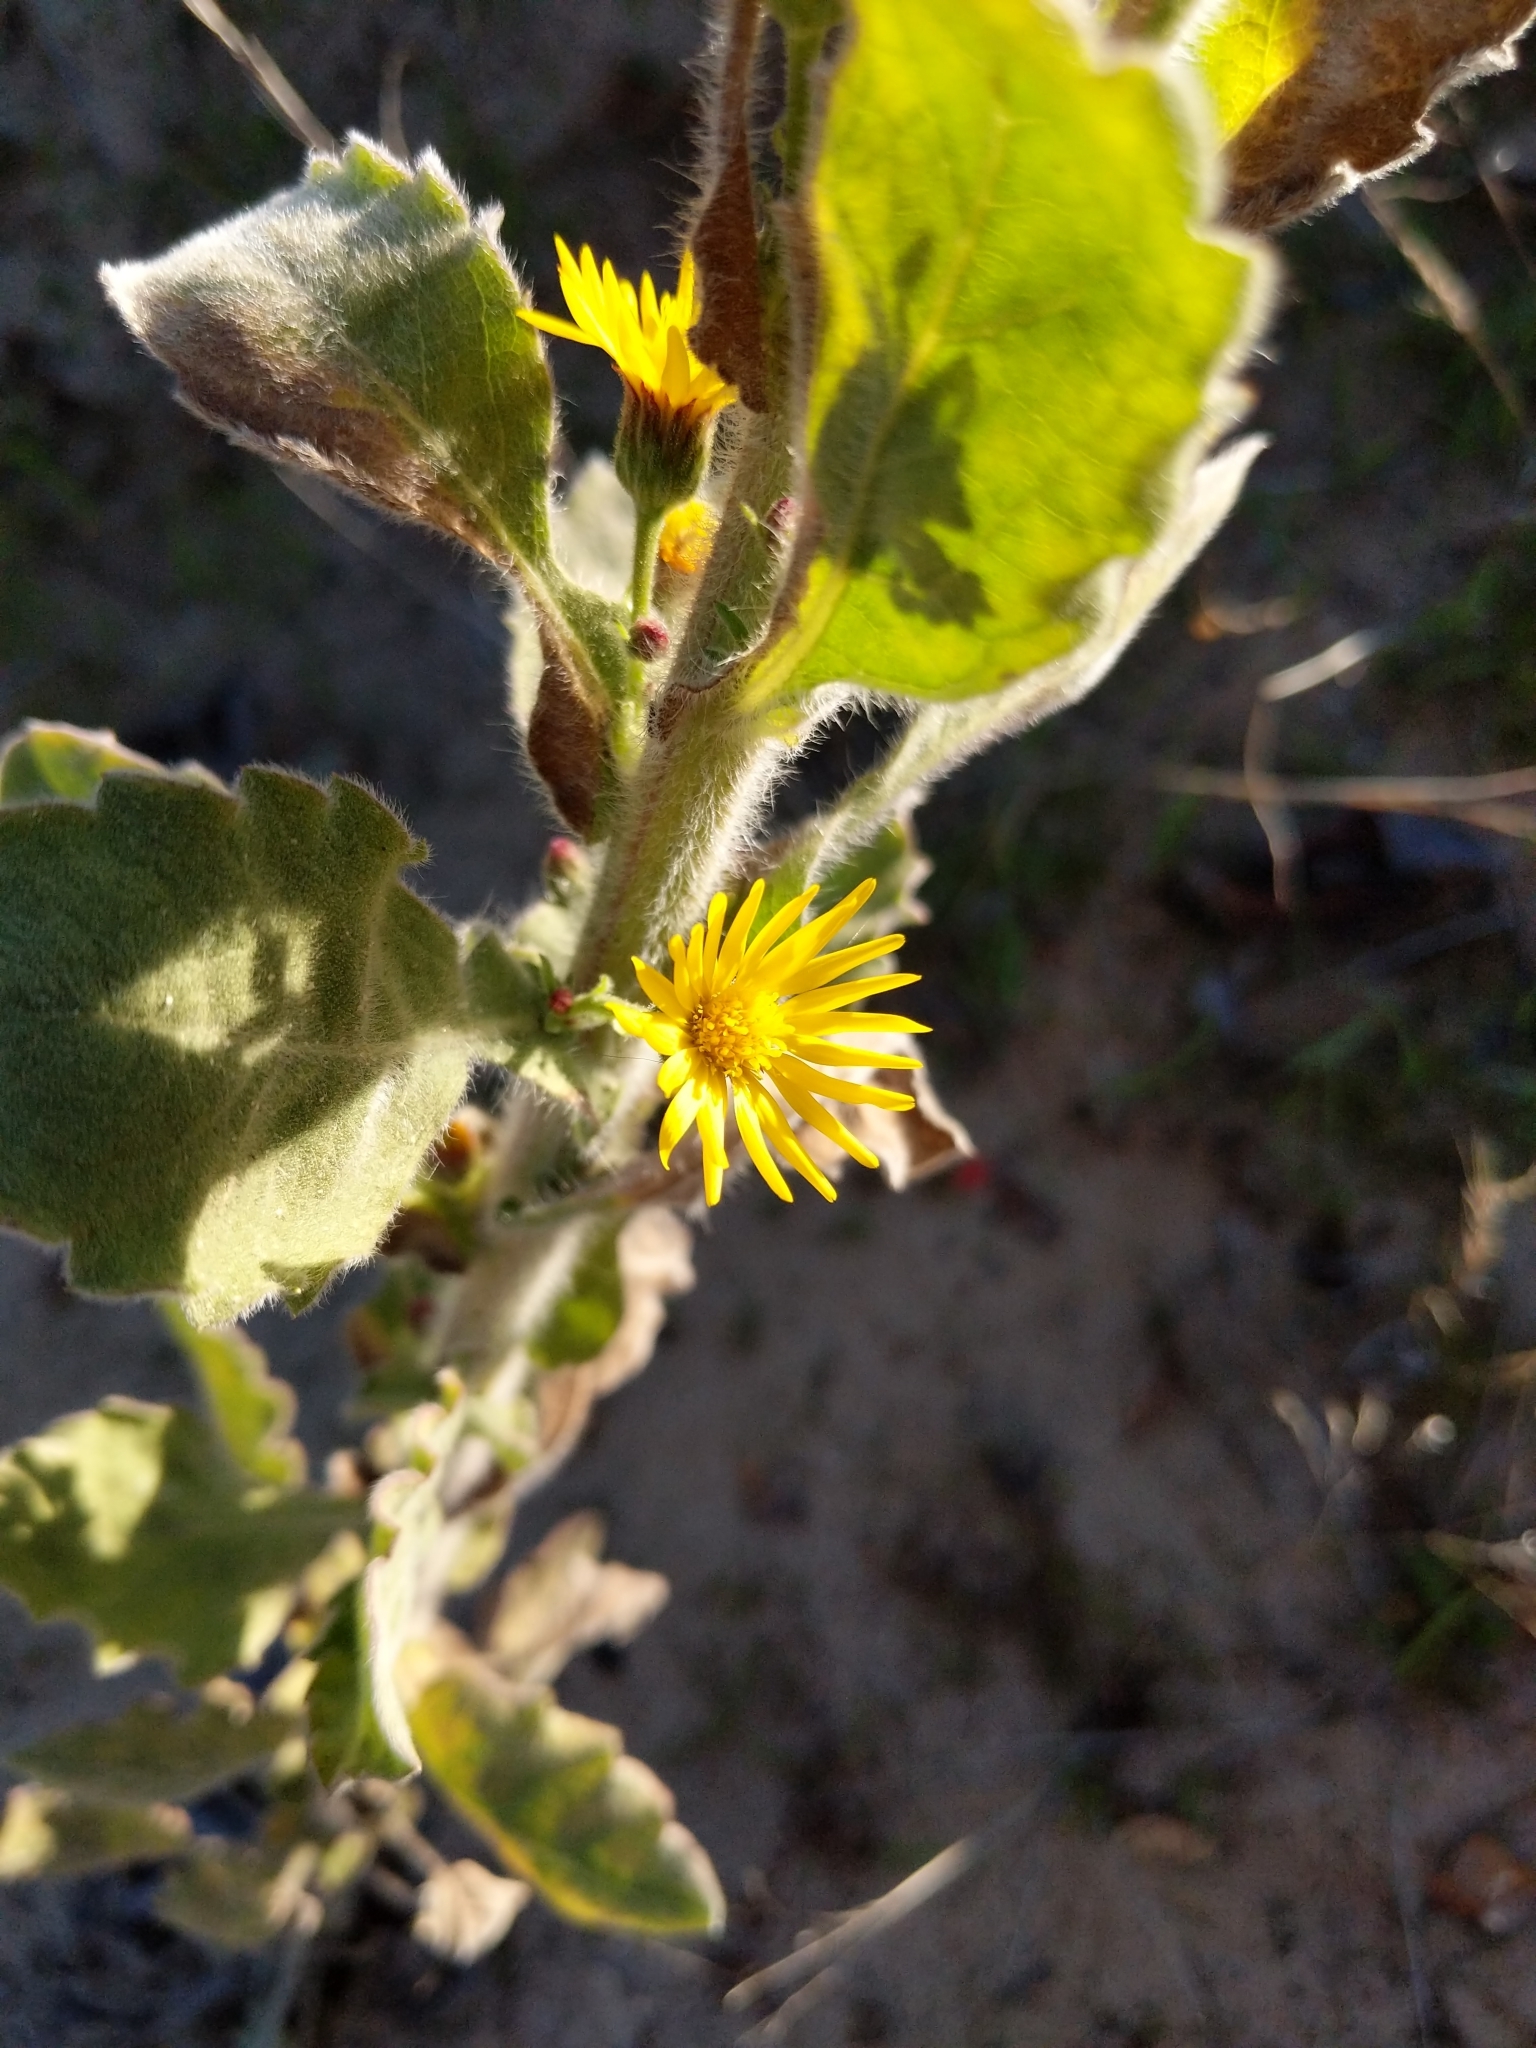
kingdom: Plantae
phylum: Tracheophyta
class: Magnoliopsida
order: Asterales
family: Asteraceae
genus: Heterotheca
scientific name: Heterotheca grandiflora
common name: Telegraphweed
